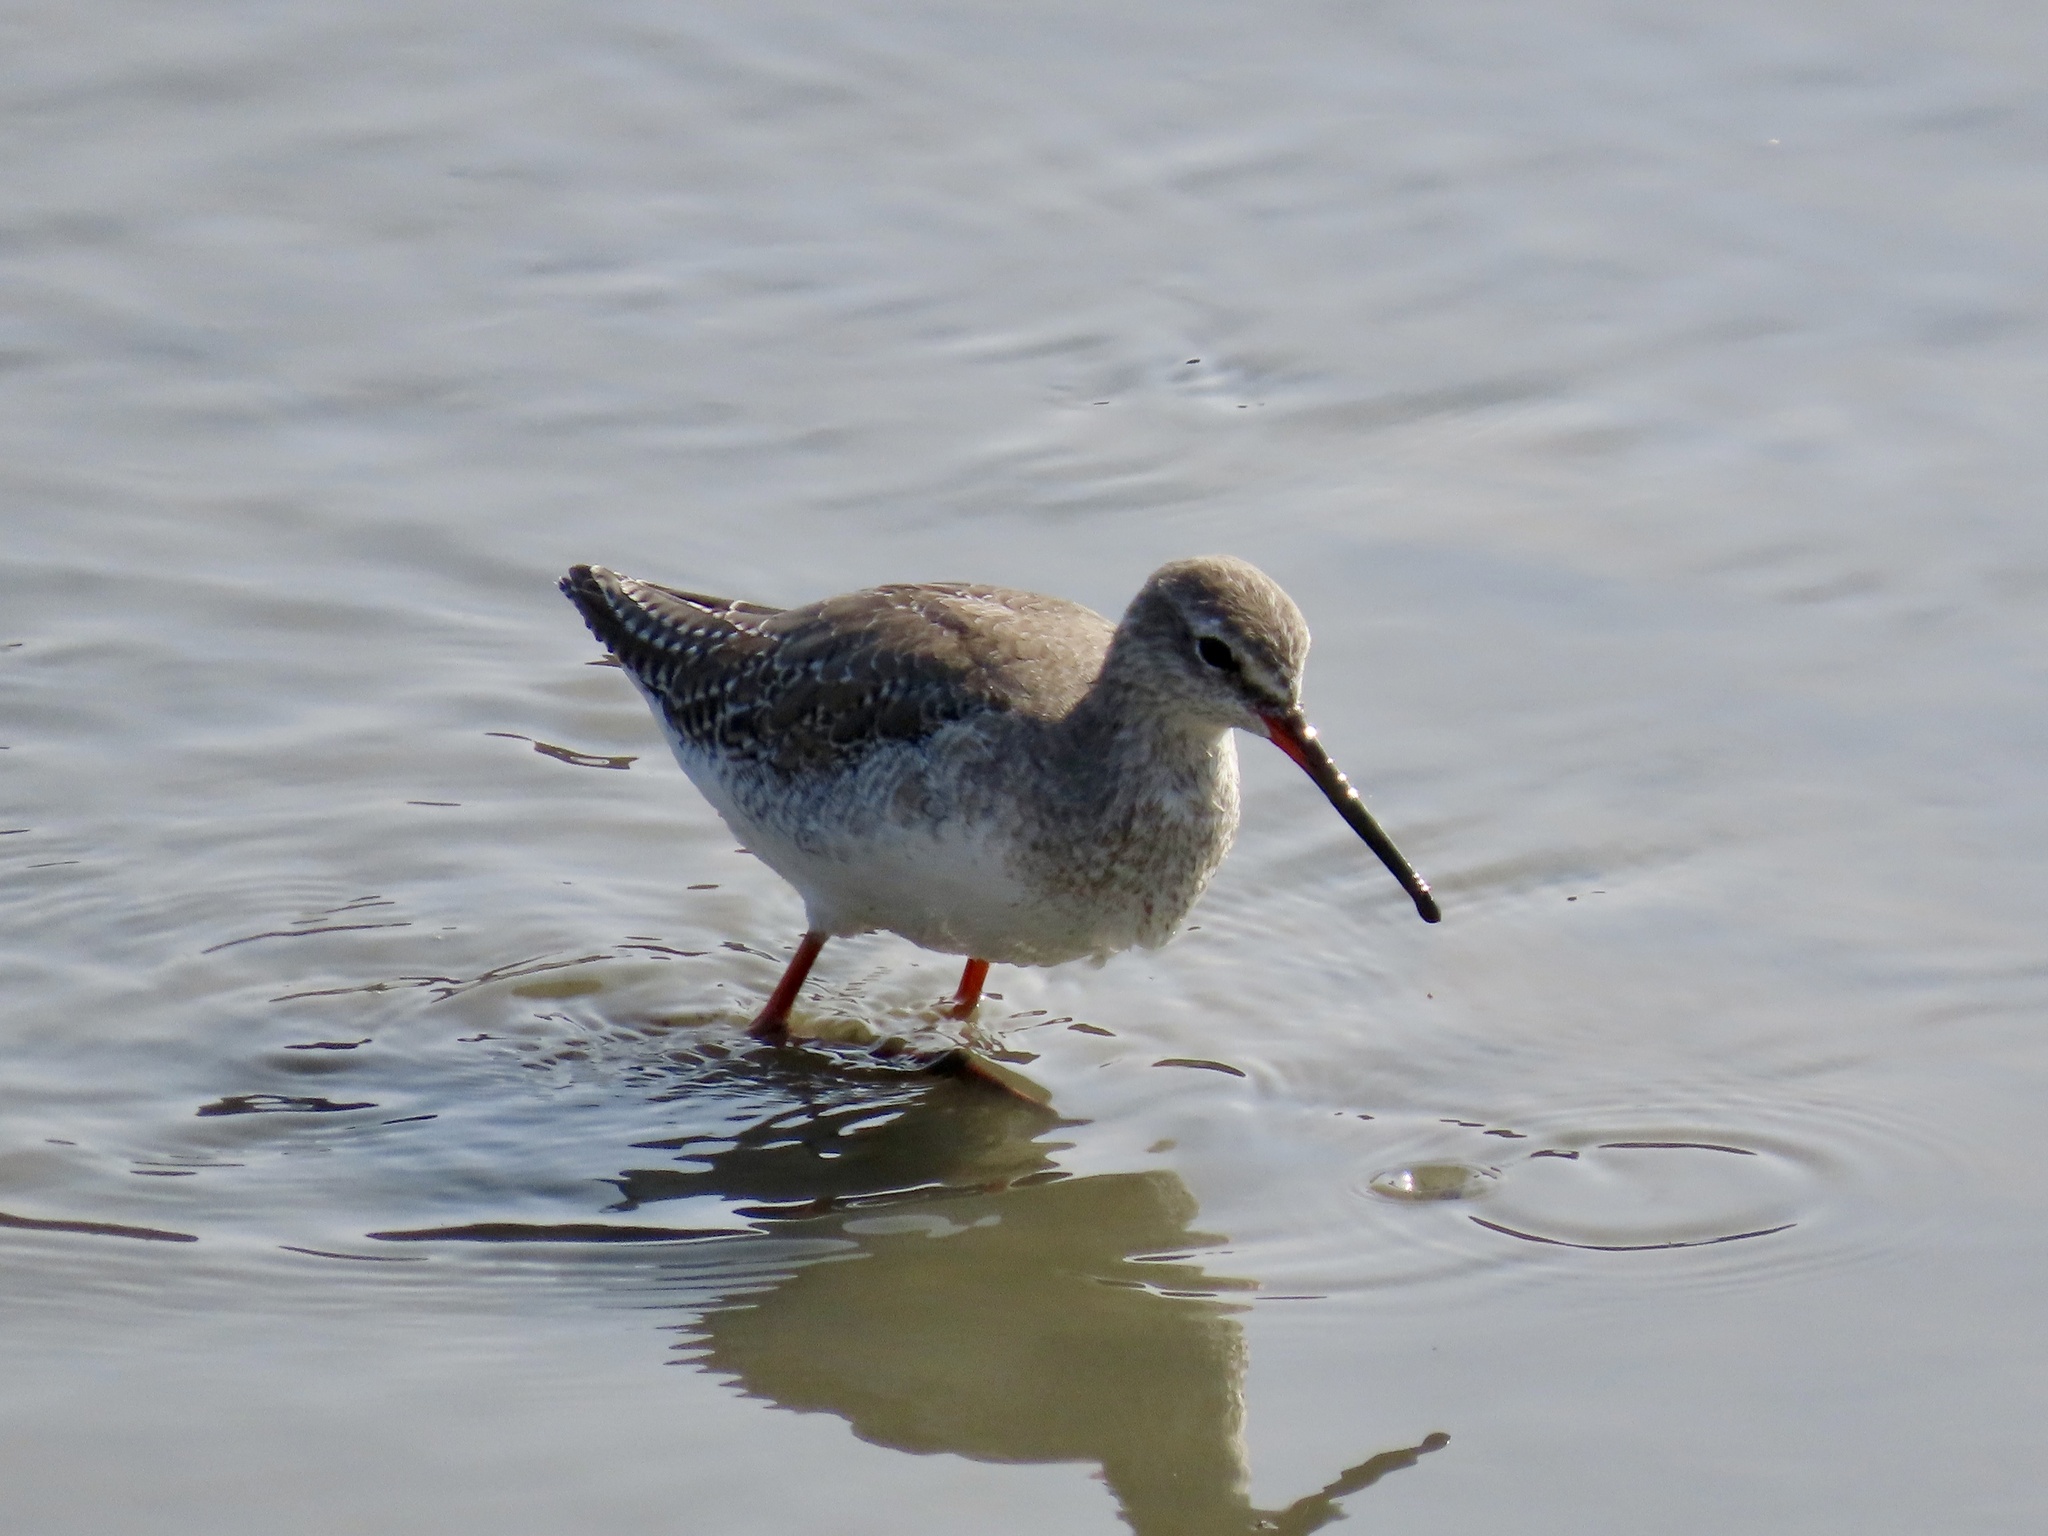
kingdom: Animalia
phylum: Chordata
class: Aves
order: Charadriiformes
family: Scolopacidae
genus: Tringa
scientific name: Tringa erythropus
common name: Spotted redshank
